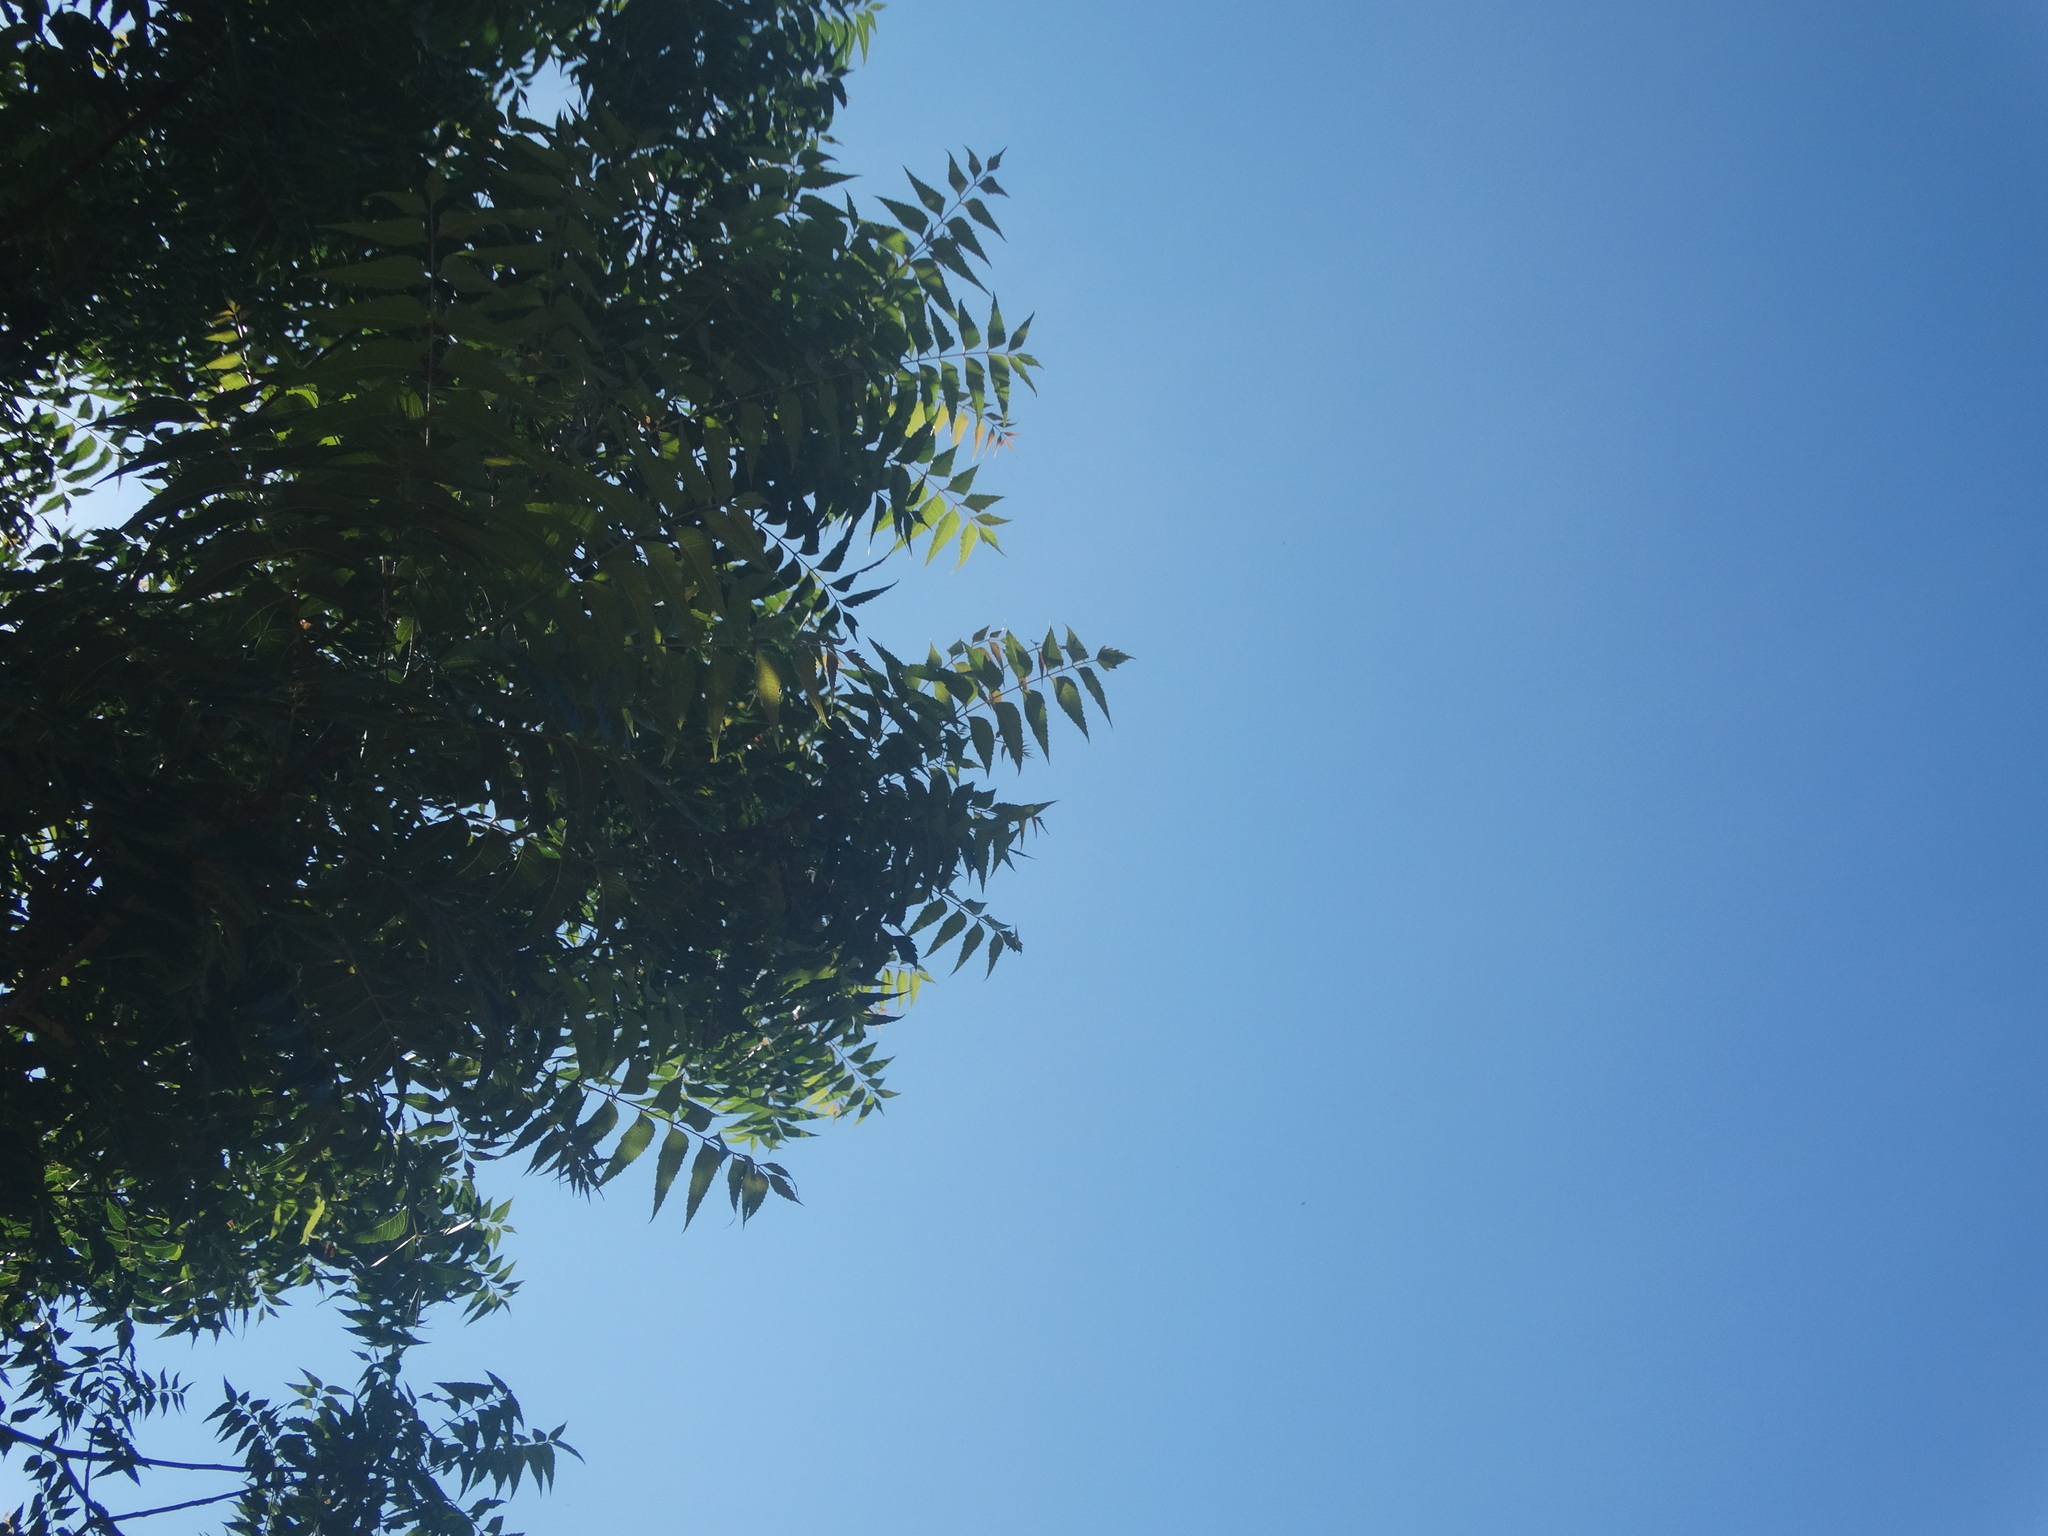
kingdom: Plantae
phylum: Tracheophyta
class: Magnoliopsida
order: Sapindales
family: Meliaceae
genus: Azadirachta
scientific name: Azadirachta indica
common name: Neem
